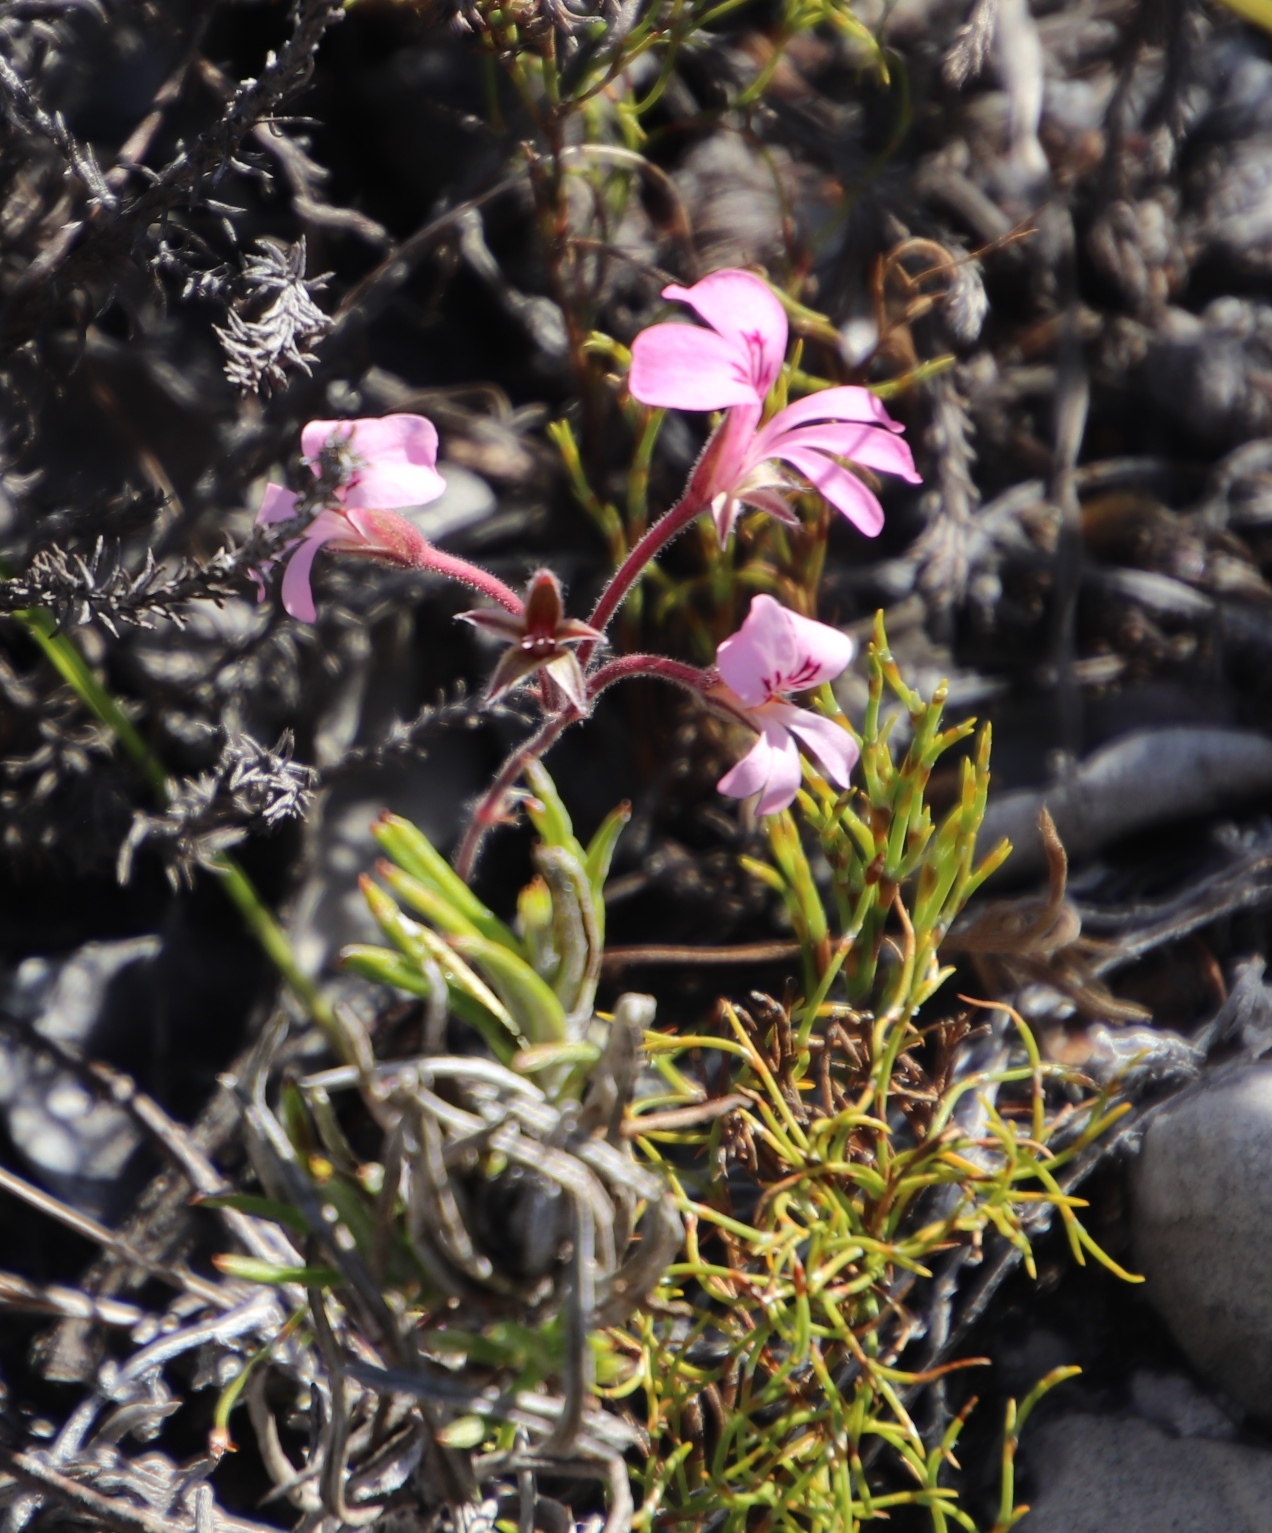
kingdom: Plantae
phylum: Tracheophyta
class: Magnoliopsida
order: Geraniales
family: Geraniaceae
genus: Pelargonium
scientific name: Pelargonium psammophilum
